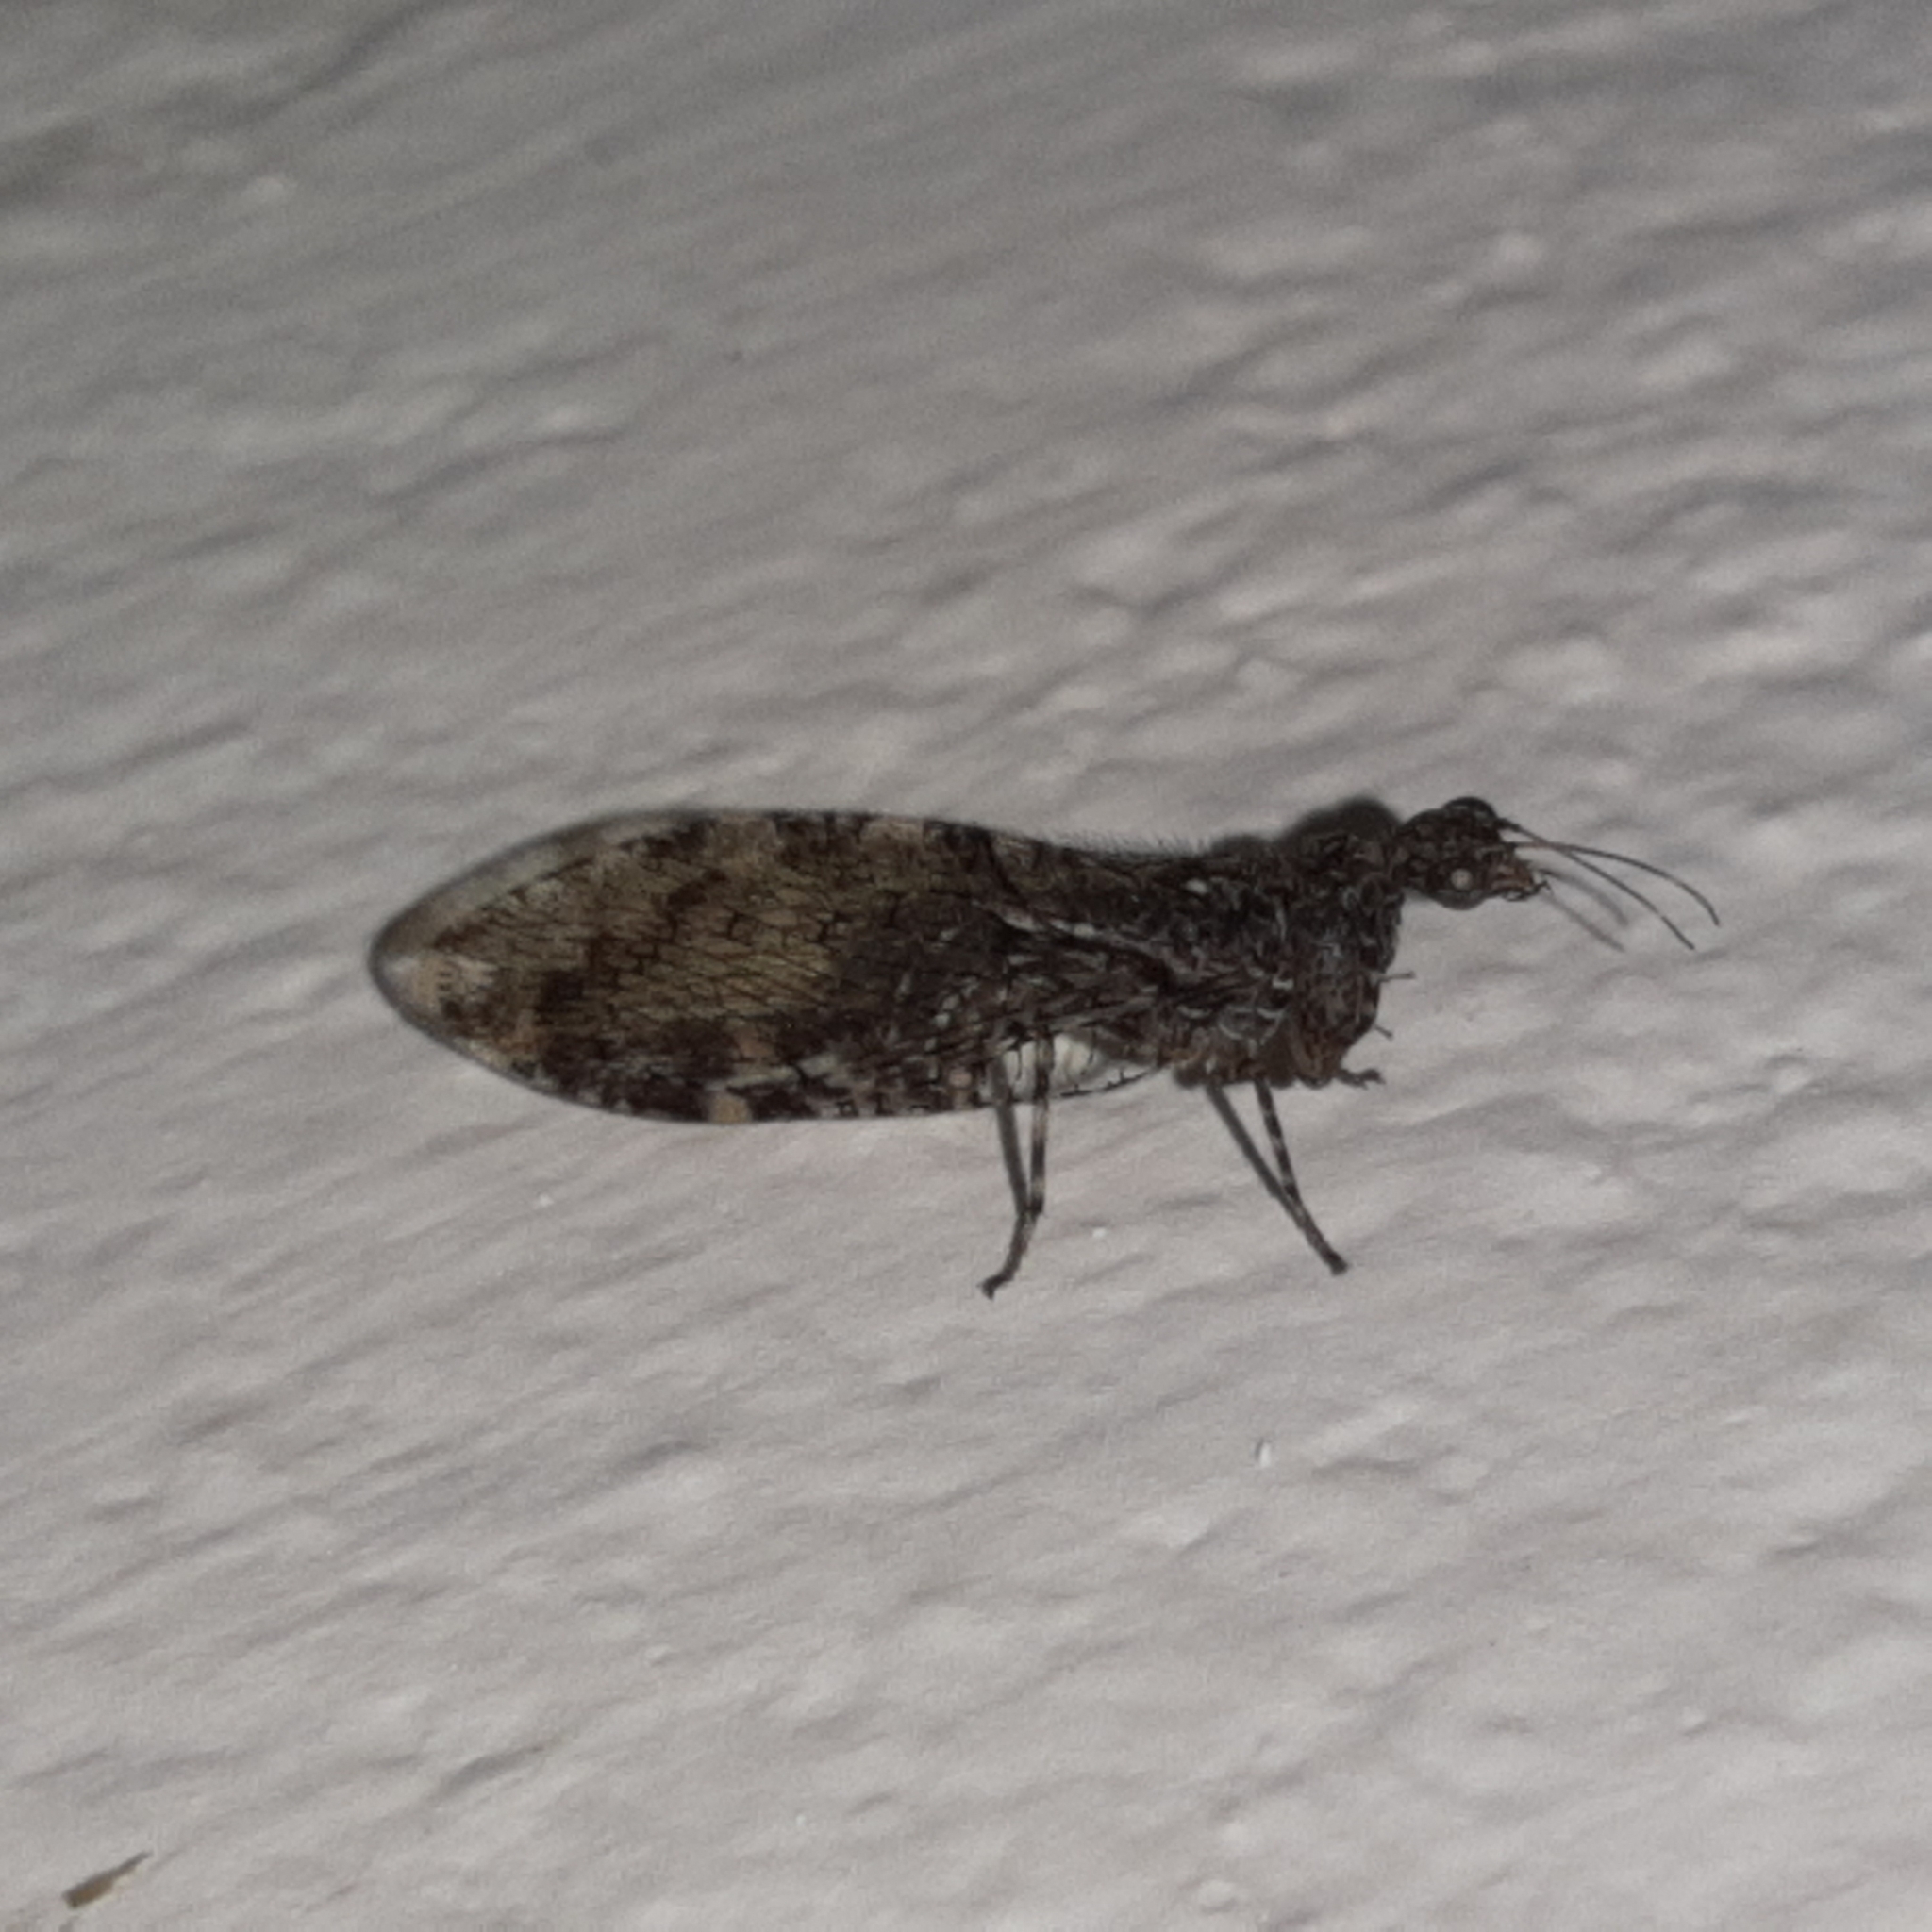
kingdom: Animalia
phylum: Arthropoda
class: Insecta
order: Neuroptera
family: Mantispidae
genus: Plega
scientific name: Plega hagenella
